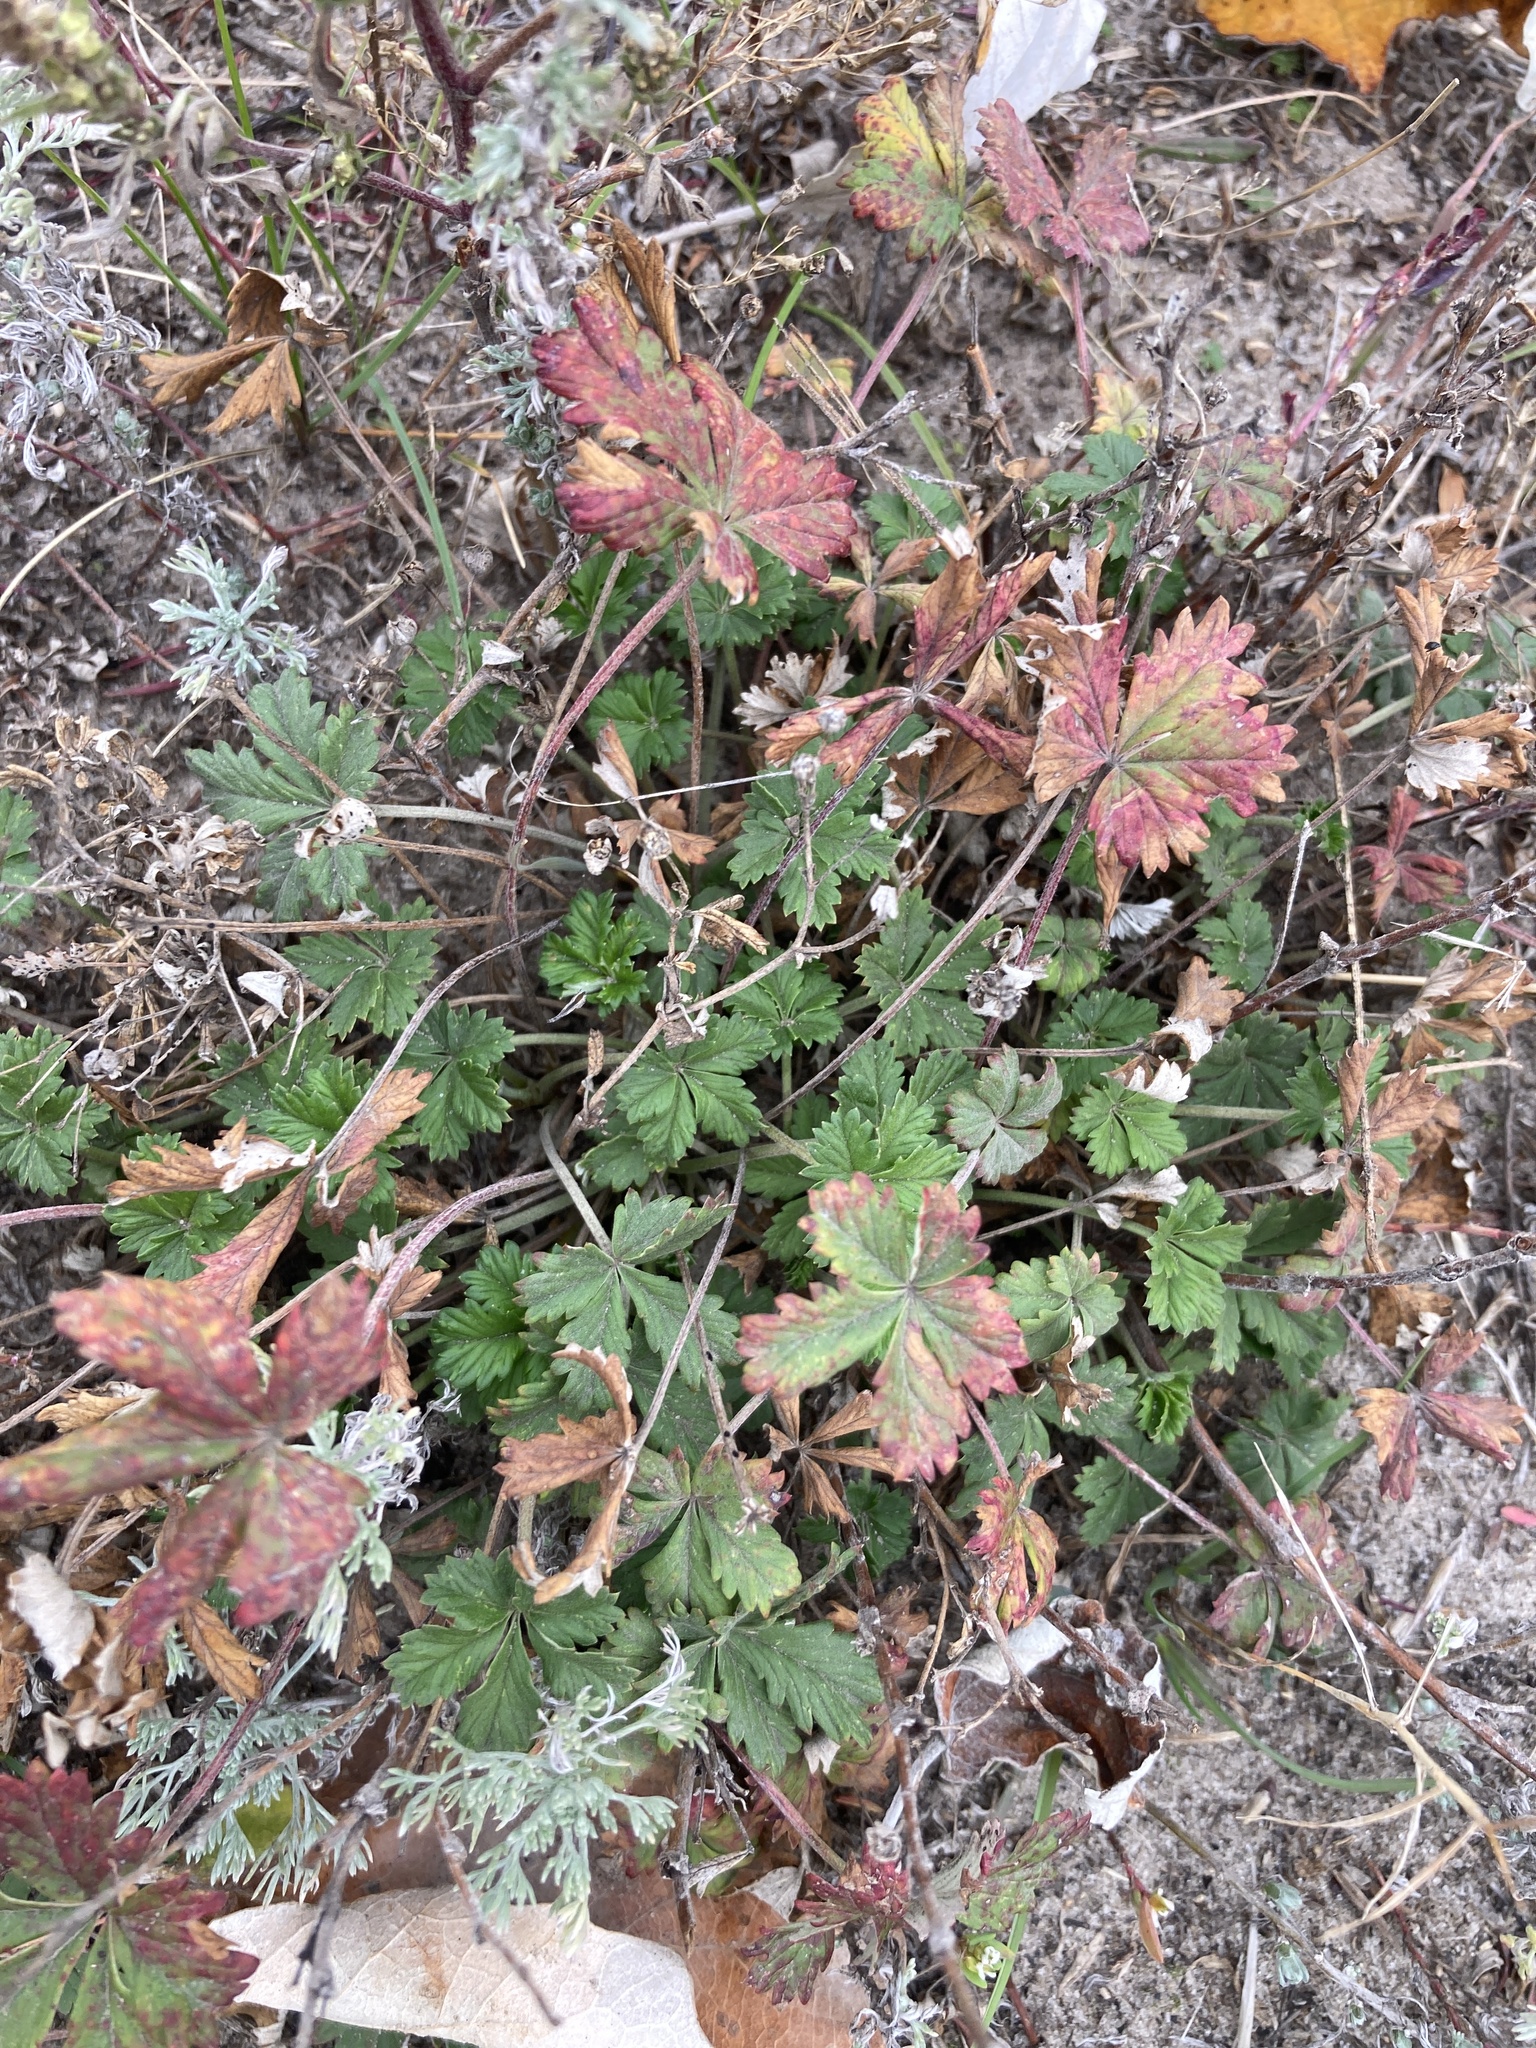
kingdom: Plantae
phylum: Tracheophyta
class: Magnoliopsida
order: Rosales
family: Rosaceae
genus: Potentilla
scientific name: Potentilla argentea
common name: Hoary cinquefoil
